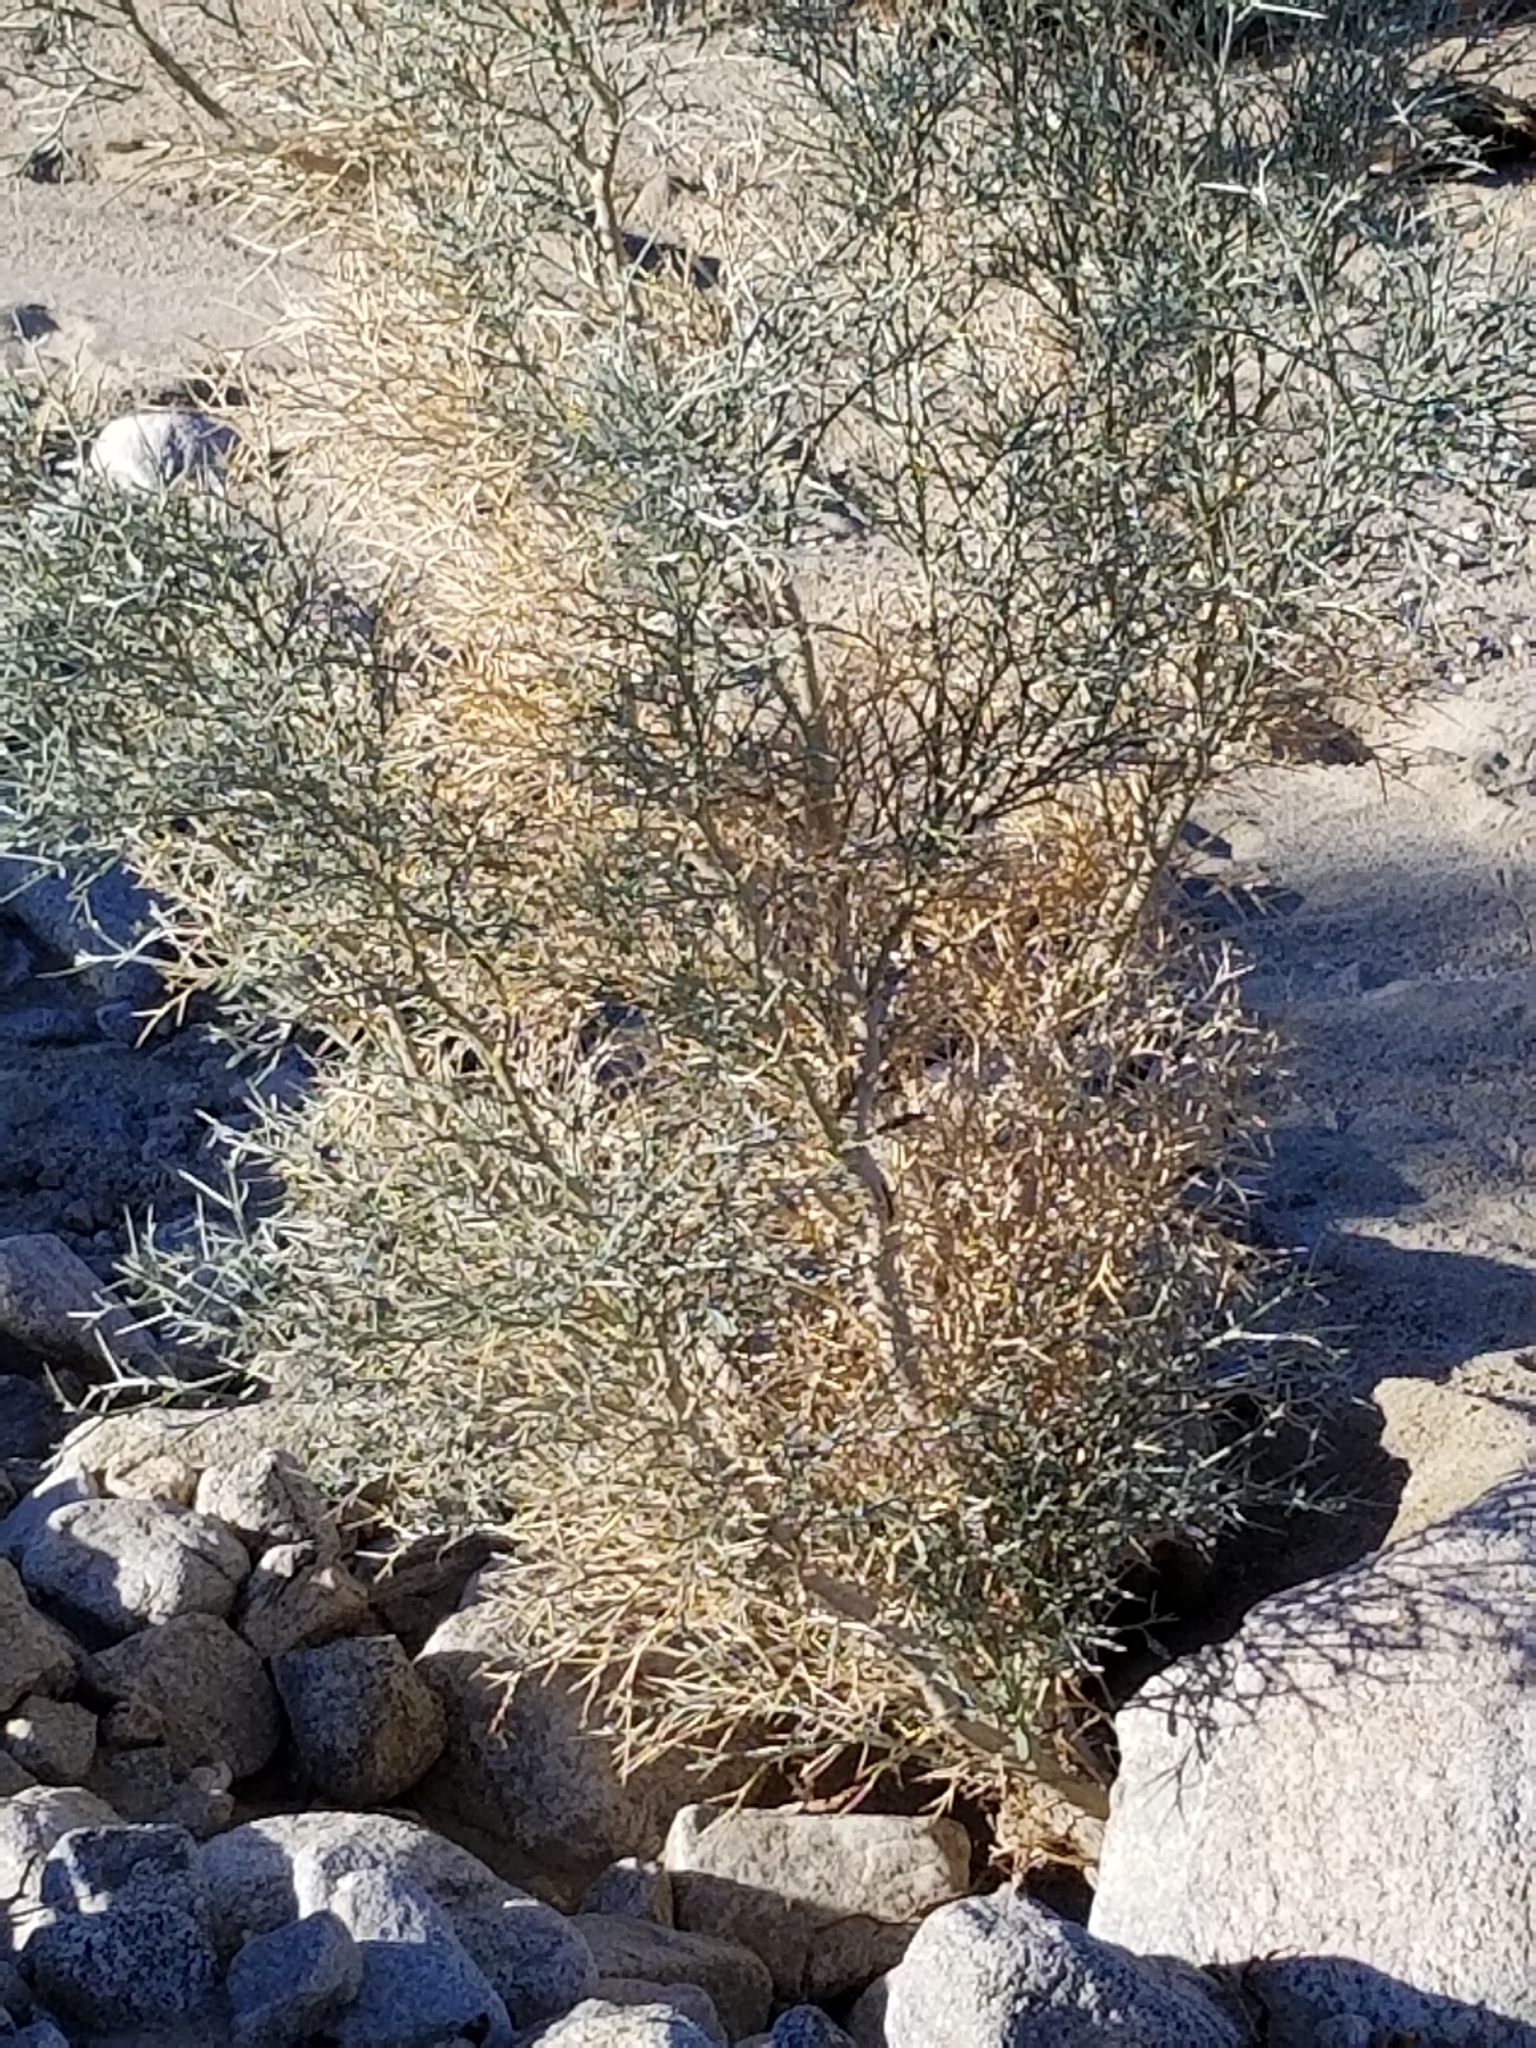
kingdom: Plantae
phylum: Tracheophyta
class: Magnoliopsida
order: Fabales
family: Fabaceae
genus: Psorothamnus
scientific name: Psorothamnus spinosus
